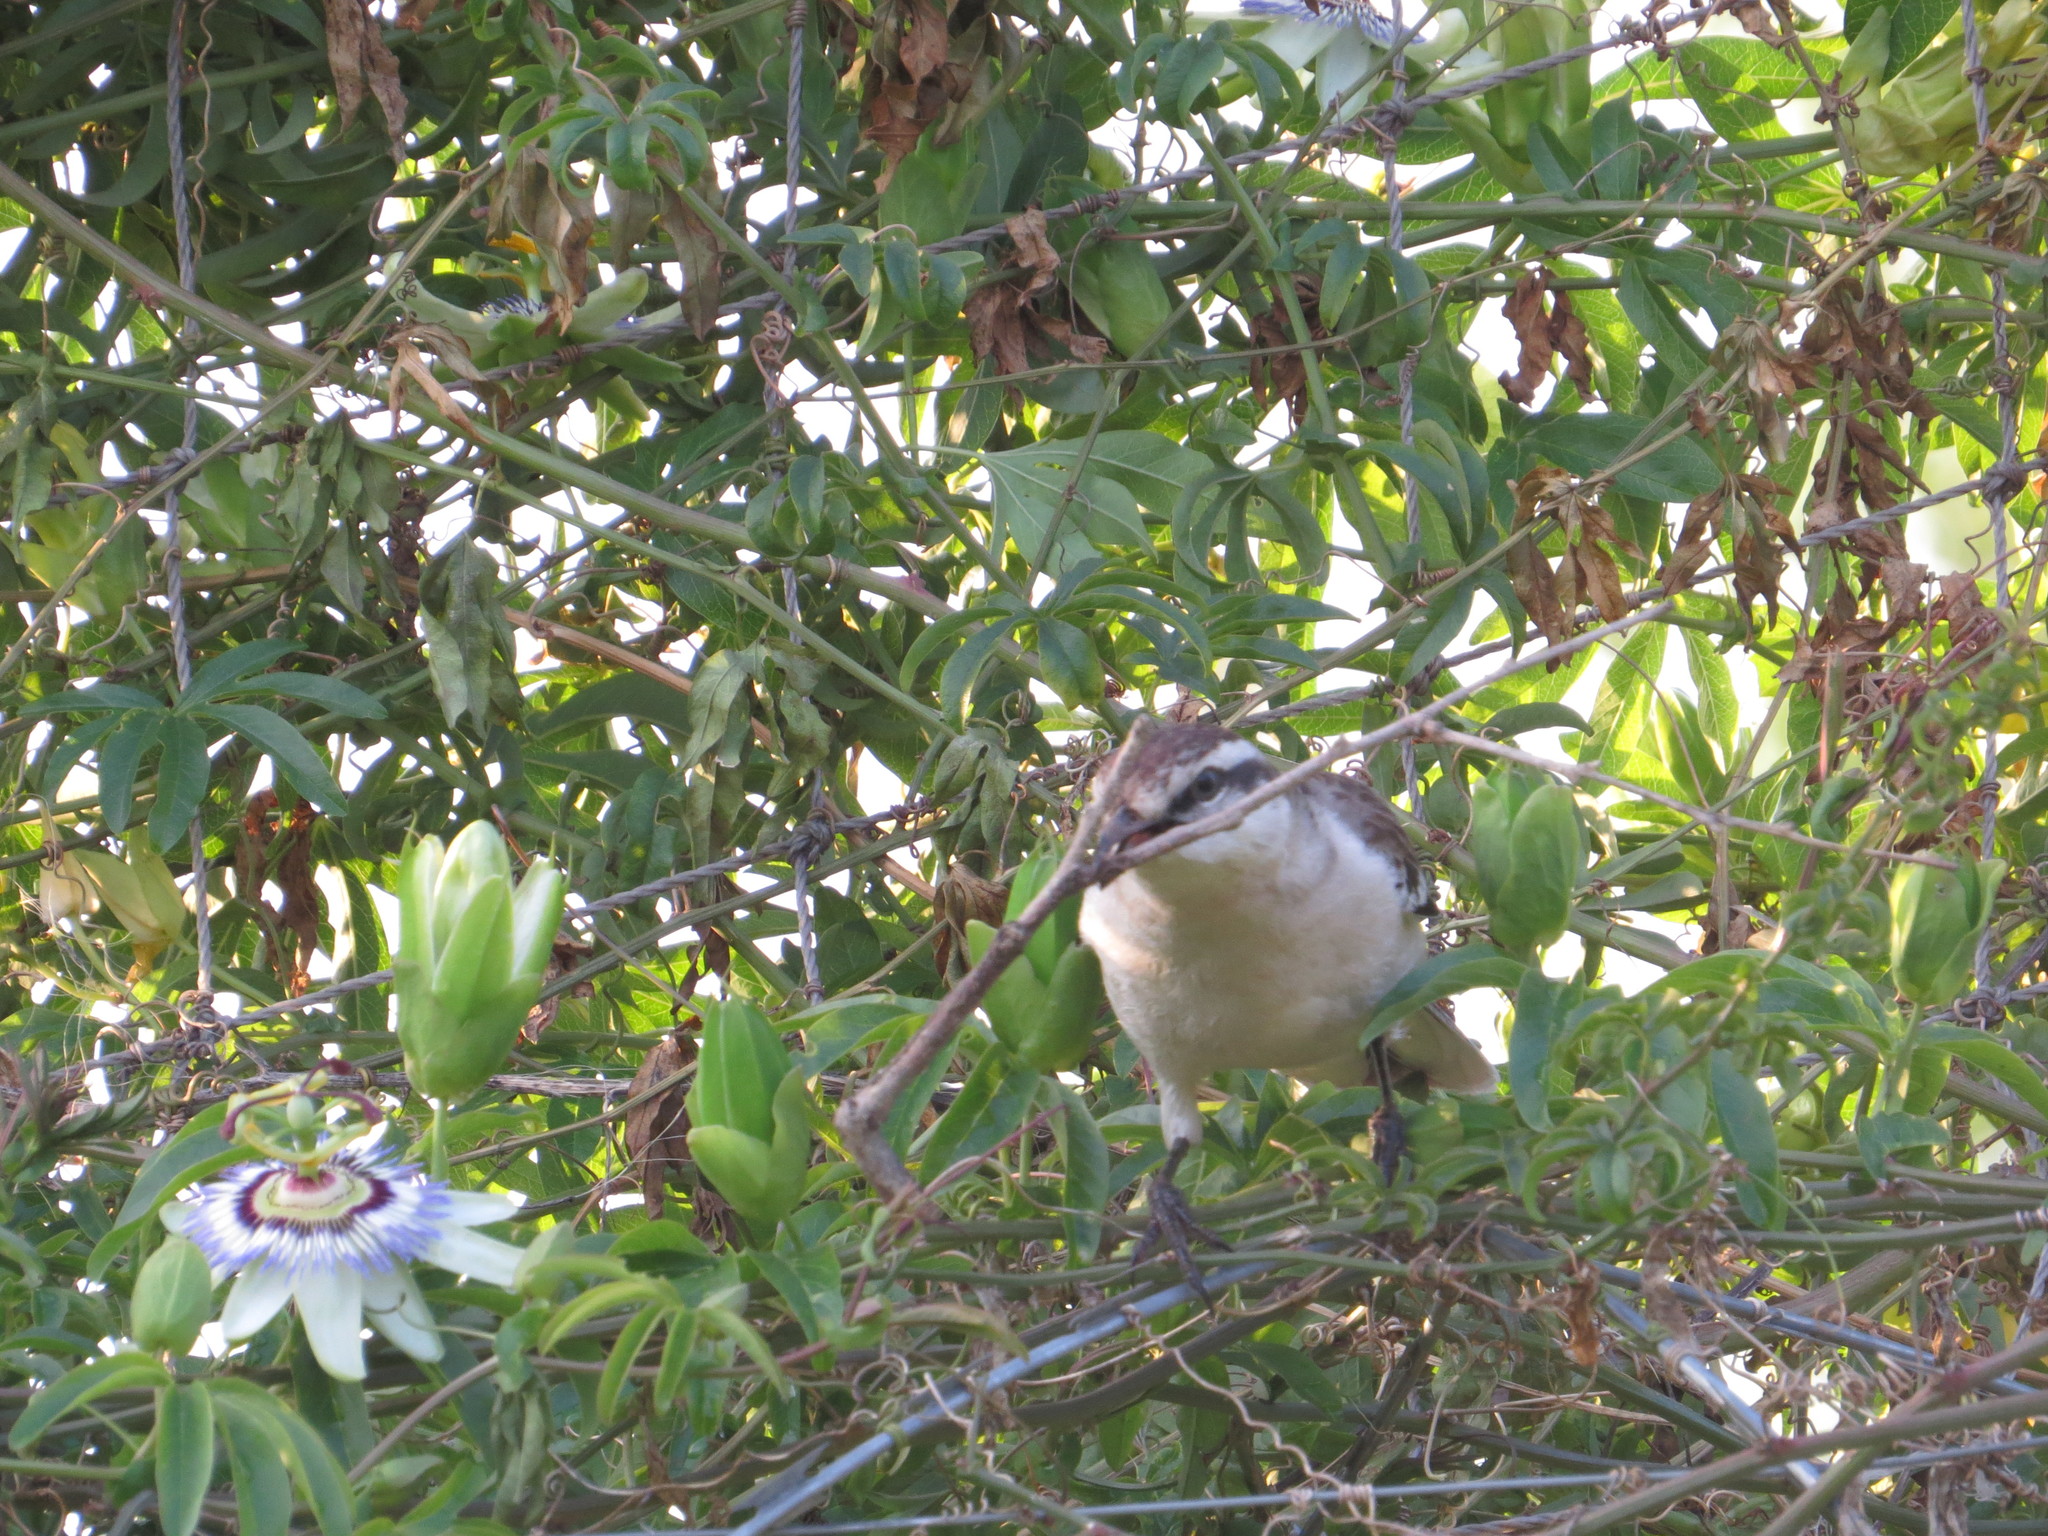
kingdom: Plantae
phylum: Tracheophyta
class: Magnoliopsida
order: Malpighiales
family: Passifloraceae
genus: Passiflora
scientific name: Passiflora caerulea
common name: Blue passionflower
